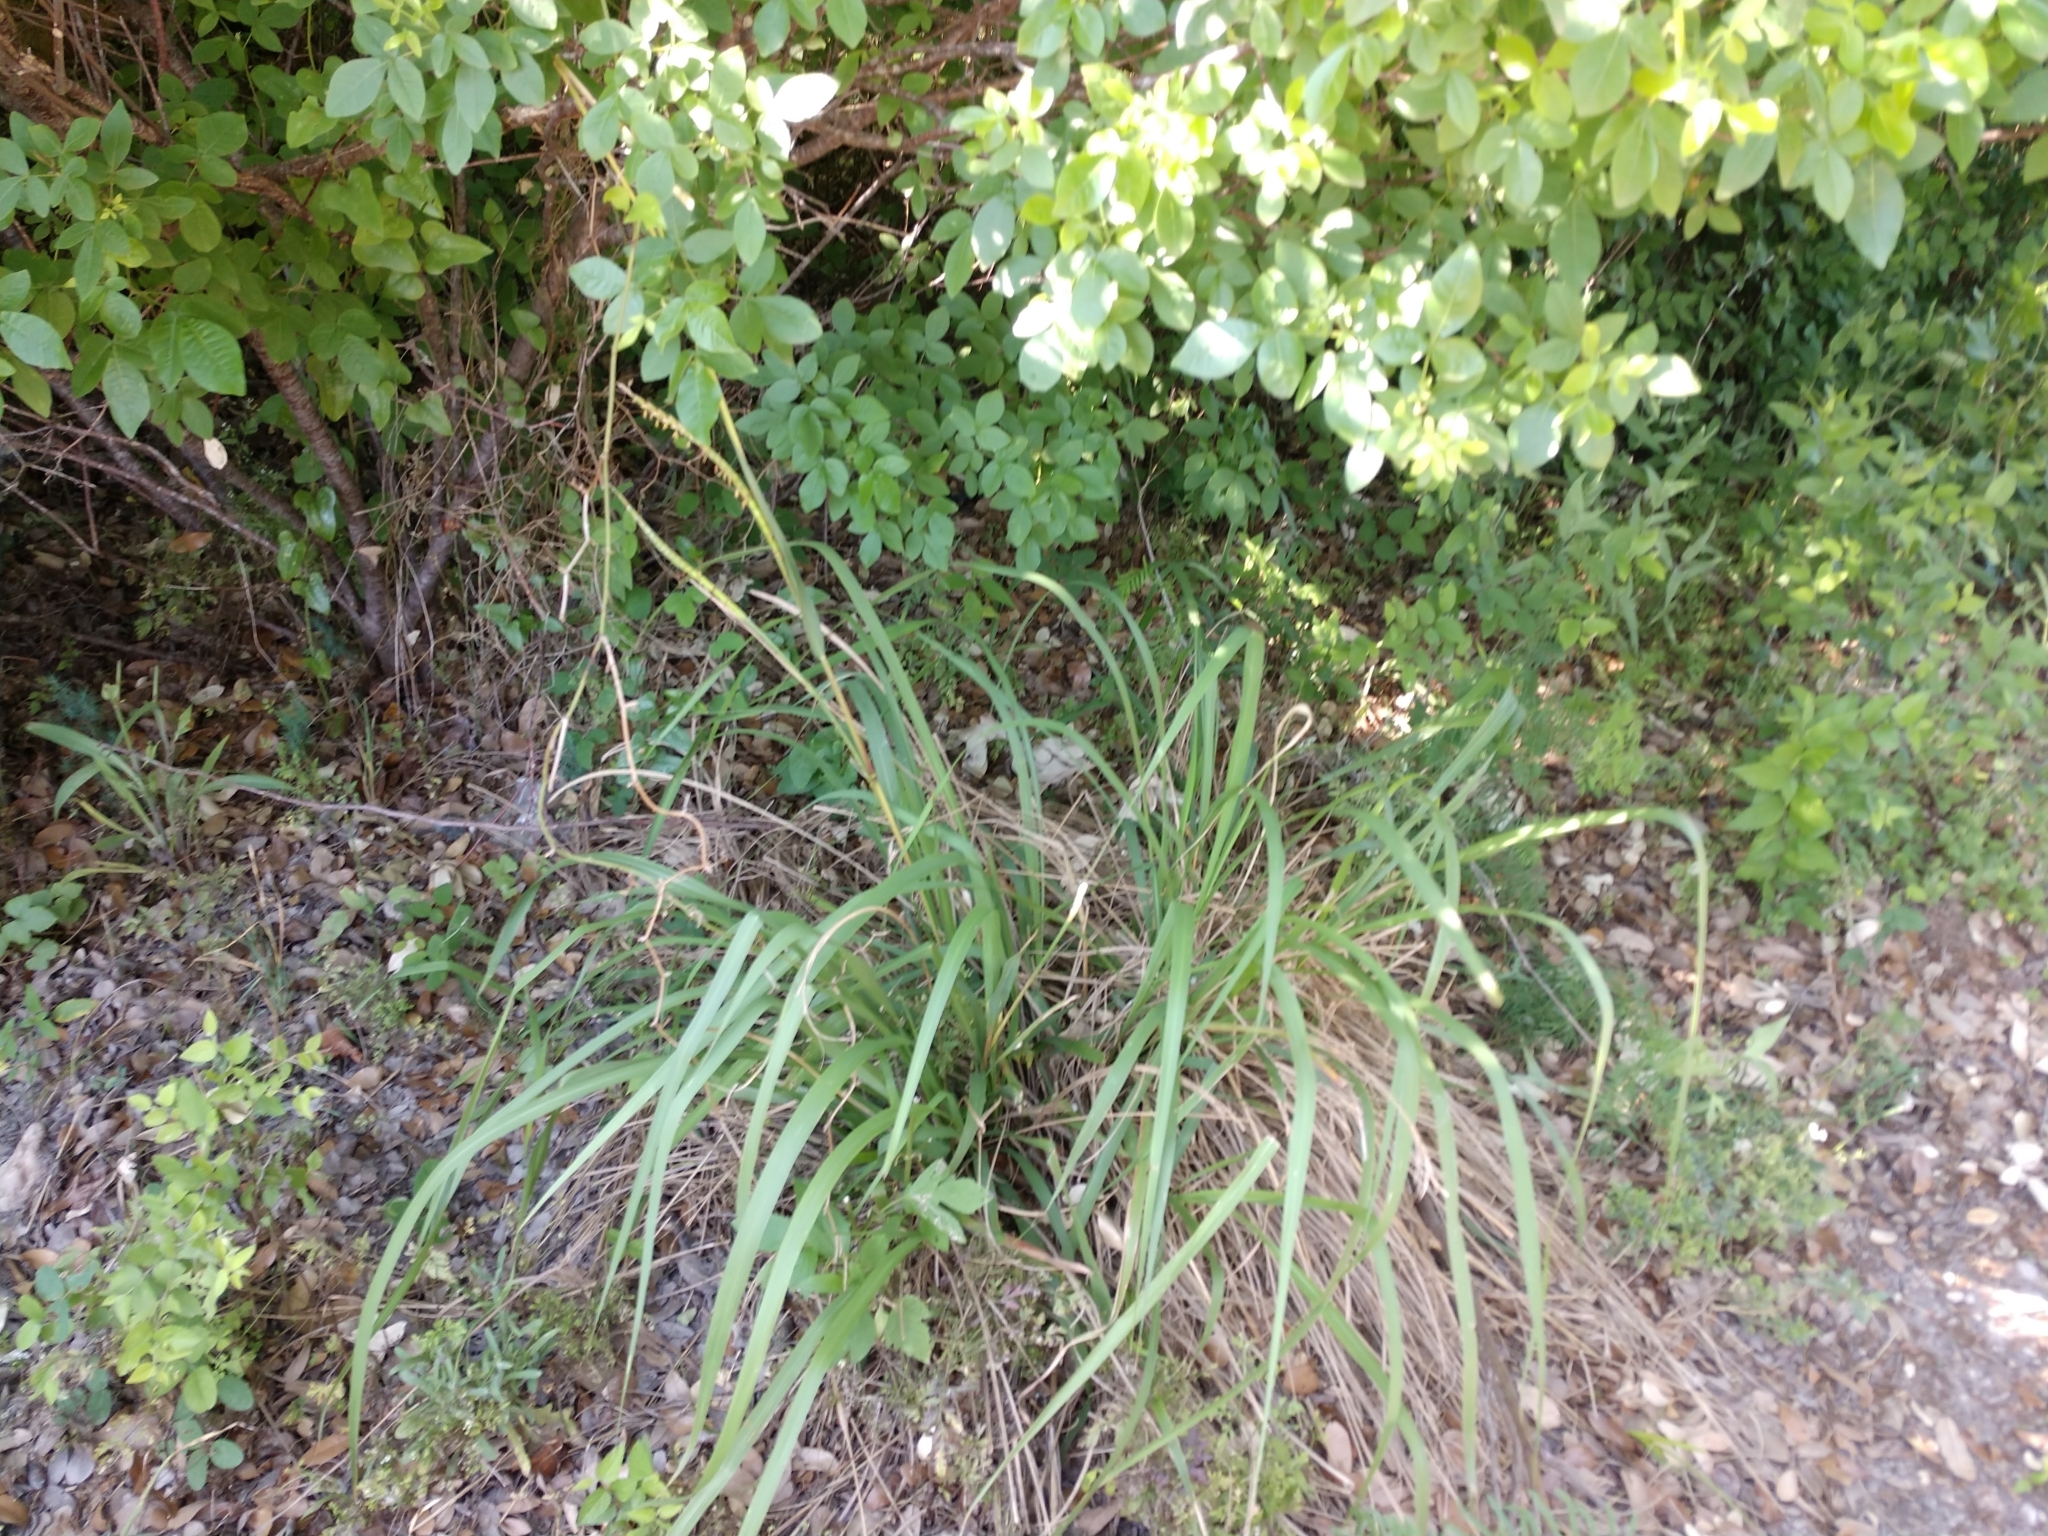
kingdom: Plantae
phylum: Tracheophyta
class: Liliopsida
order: Poales
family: Poaceae
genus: Tripsacum
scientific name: Tripsacum dactyloides
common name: Buffalo-grass
